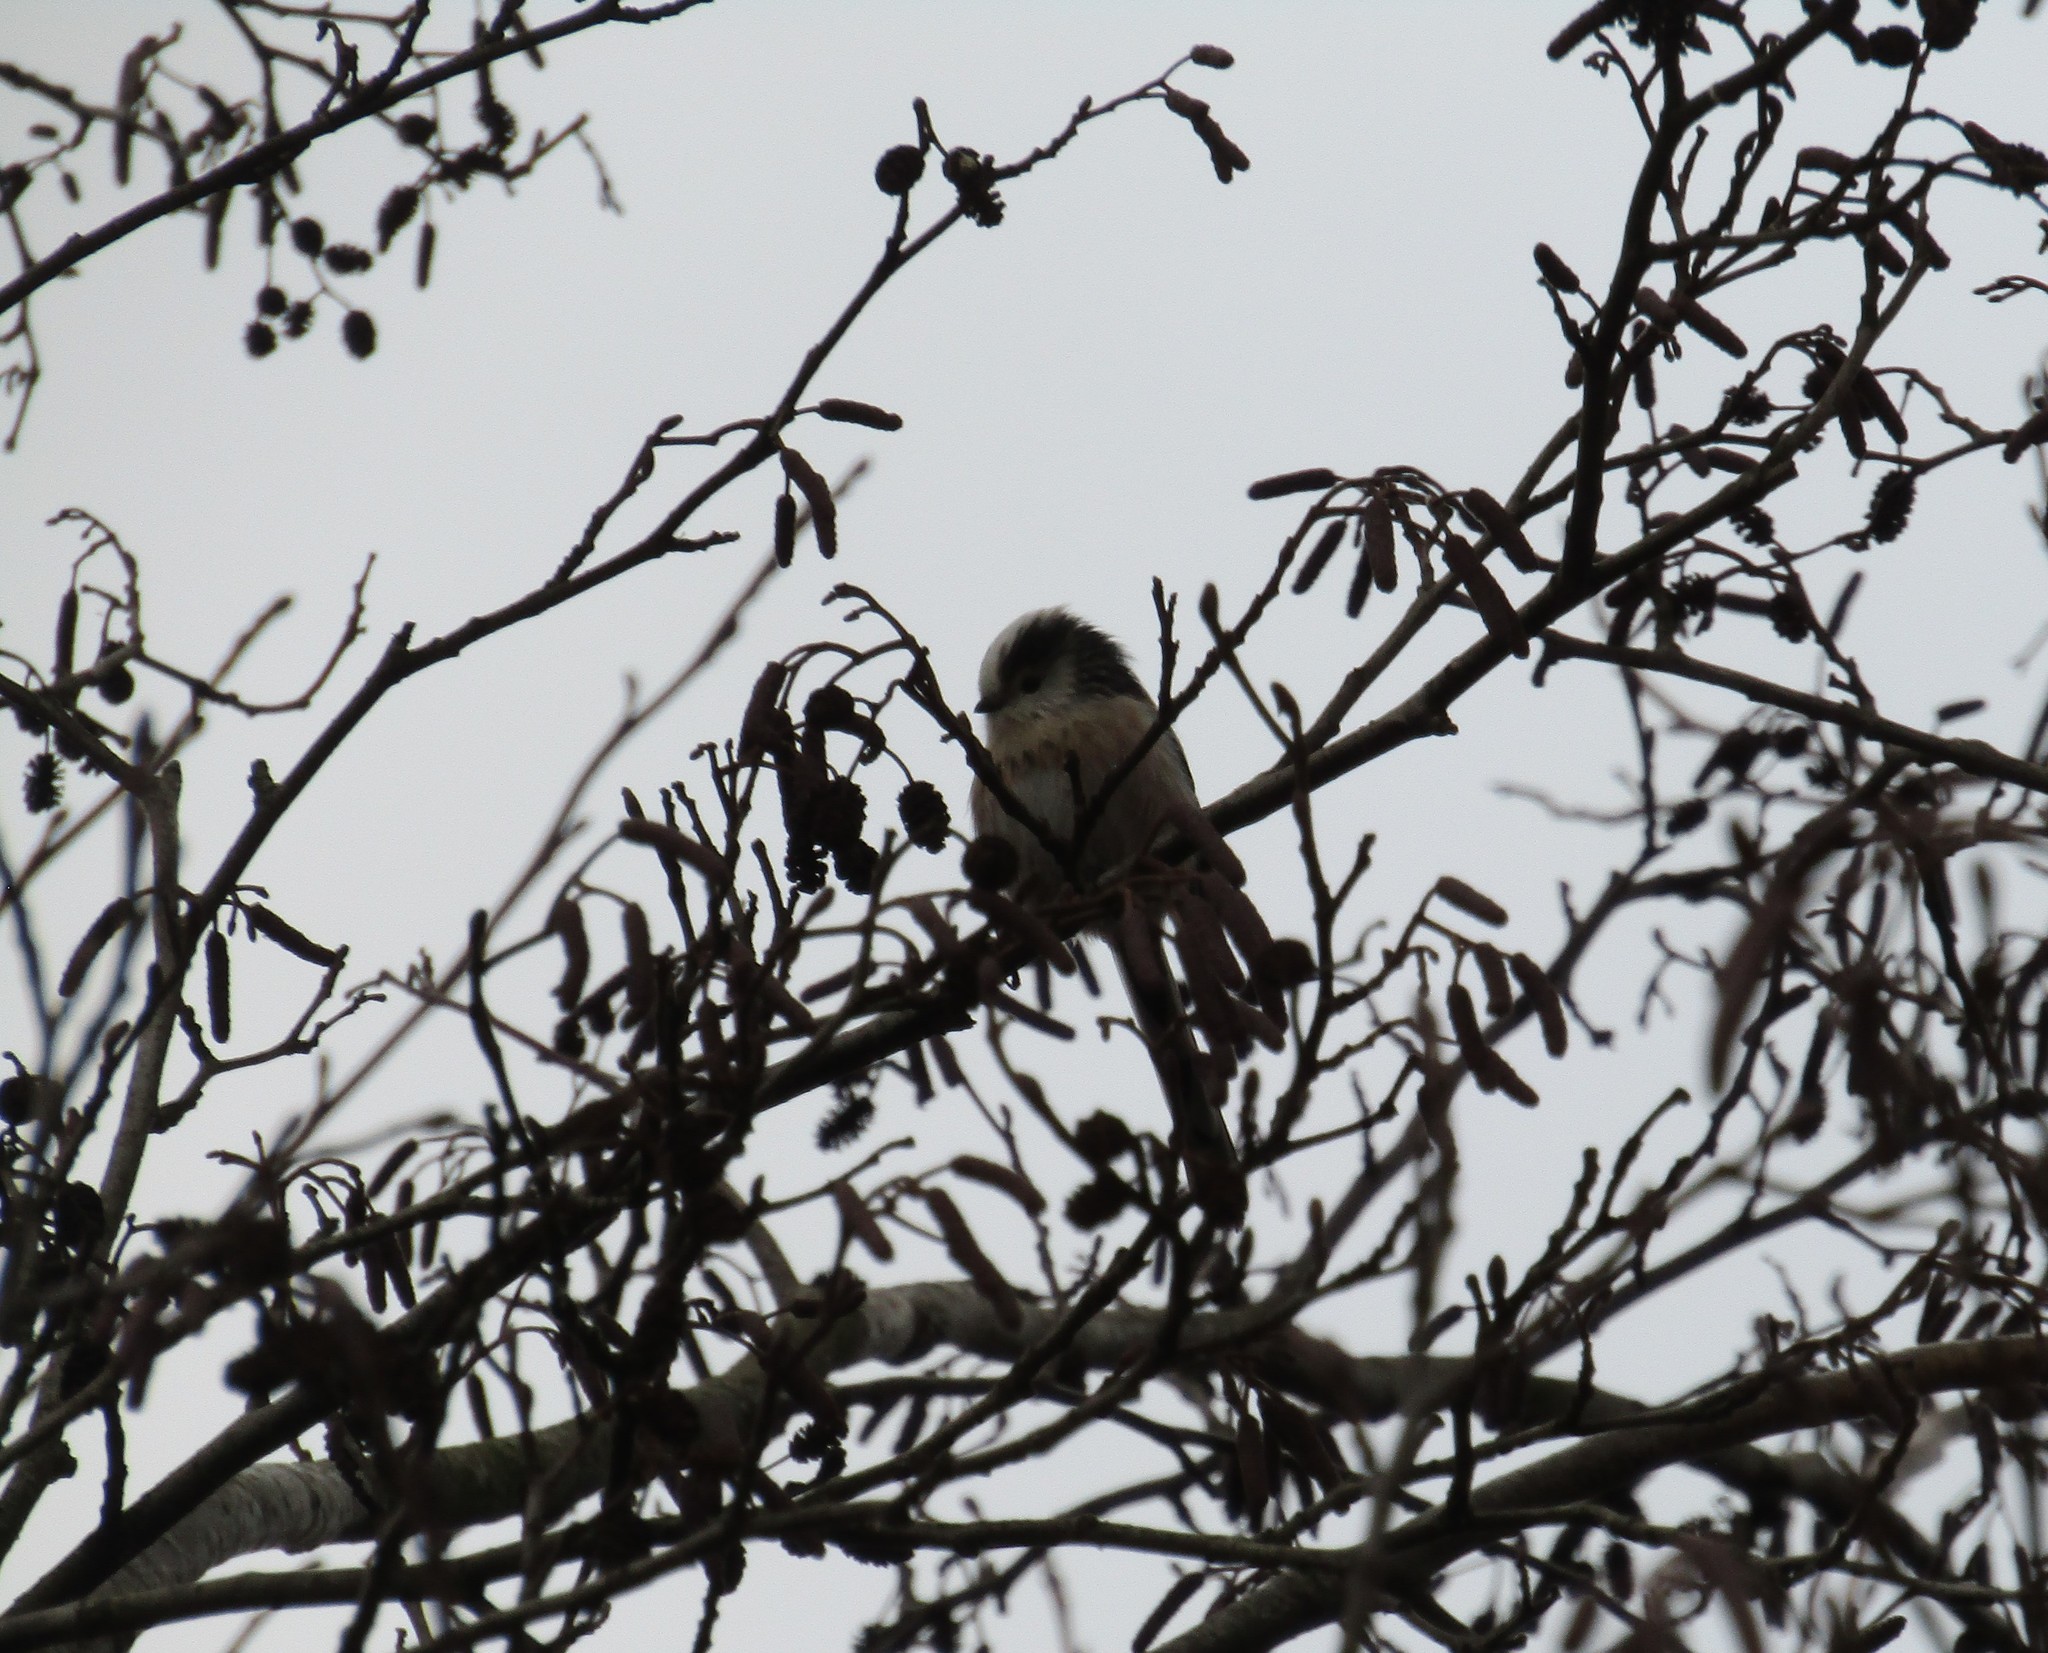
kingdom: Animalia
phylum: Chordata
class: Aves
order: Passeriformes
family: Aegithalidae
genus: Aegithalos
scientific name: Aegithalos caudatus
